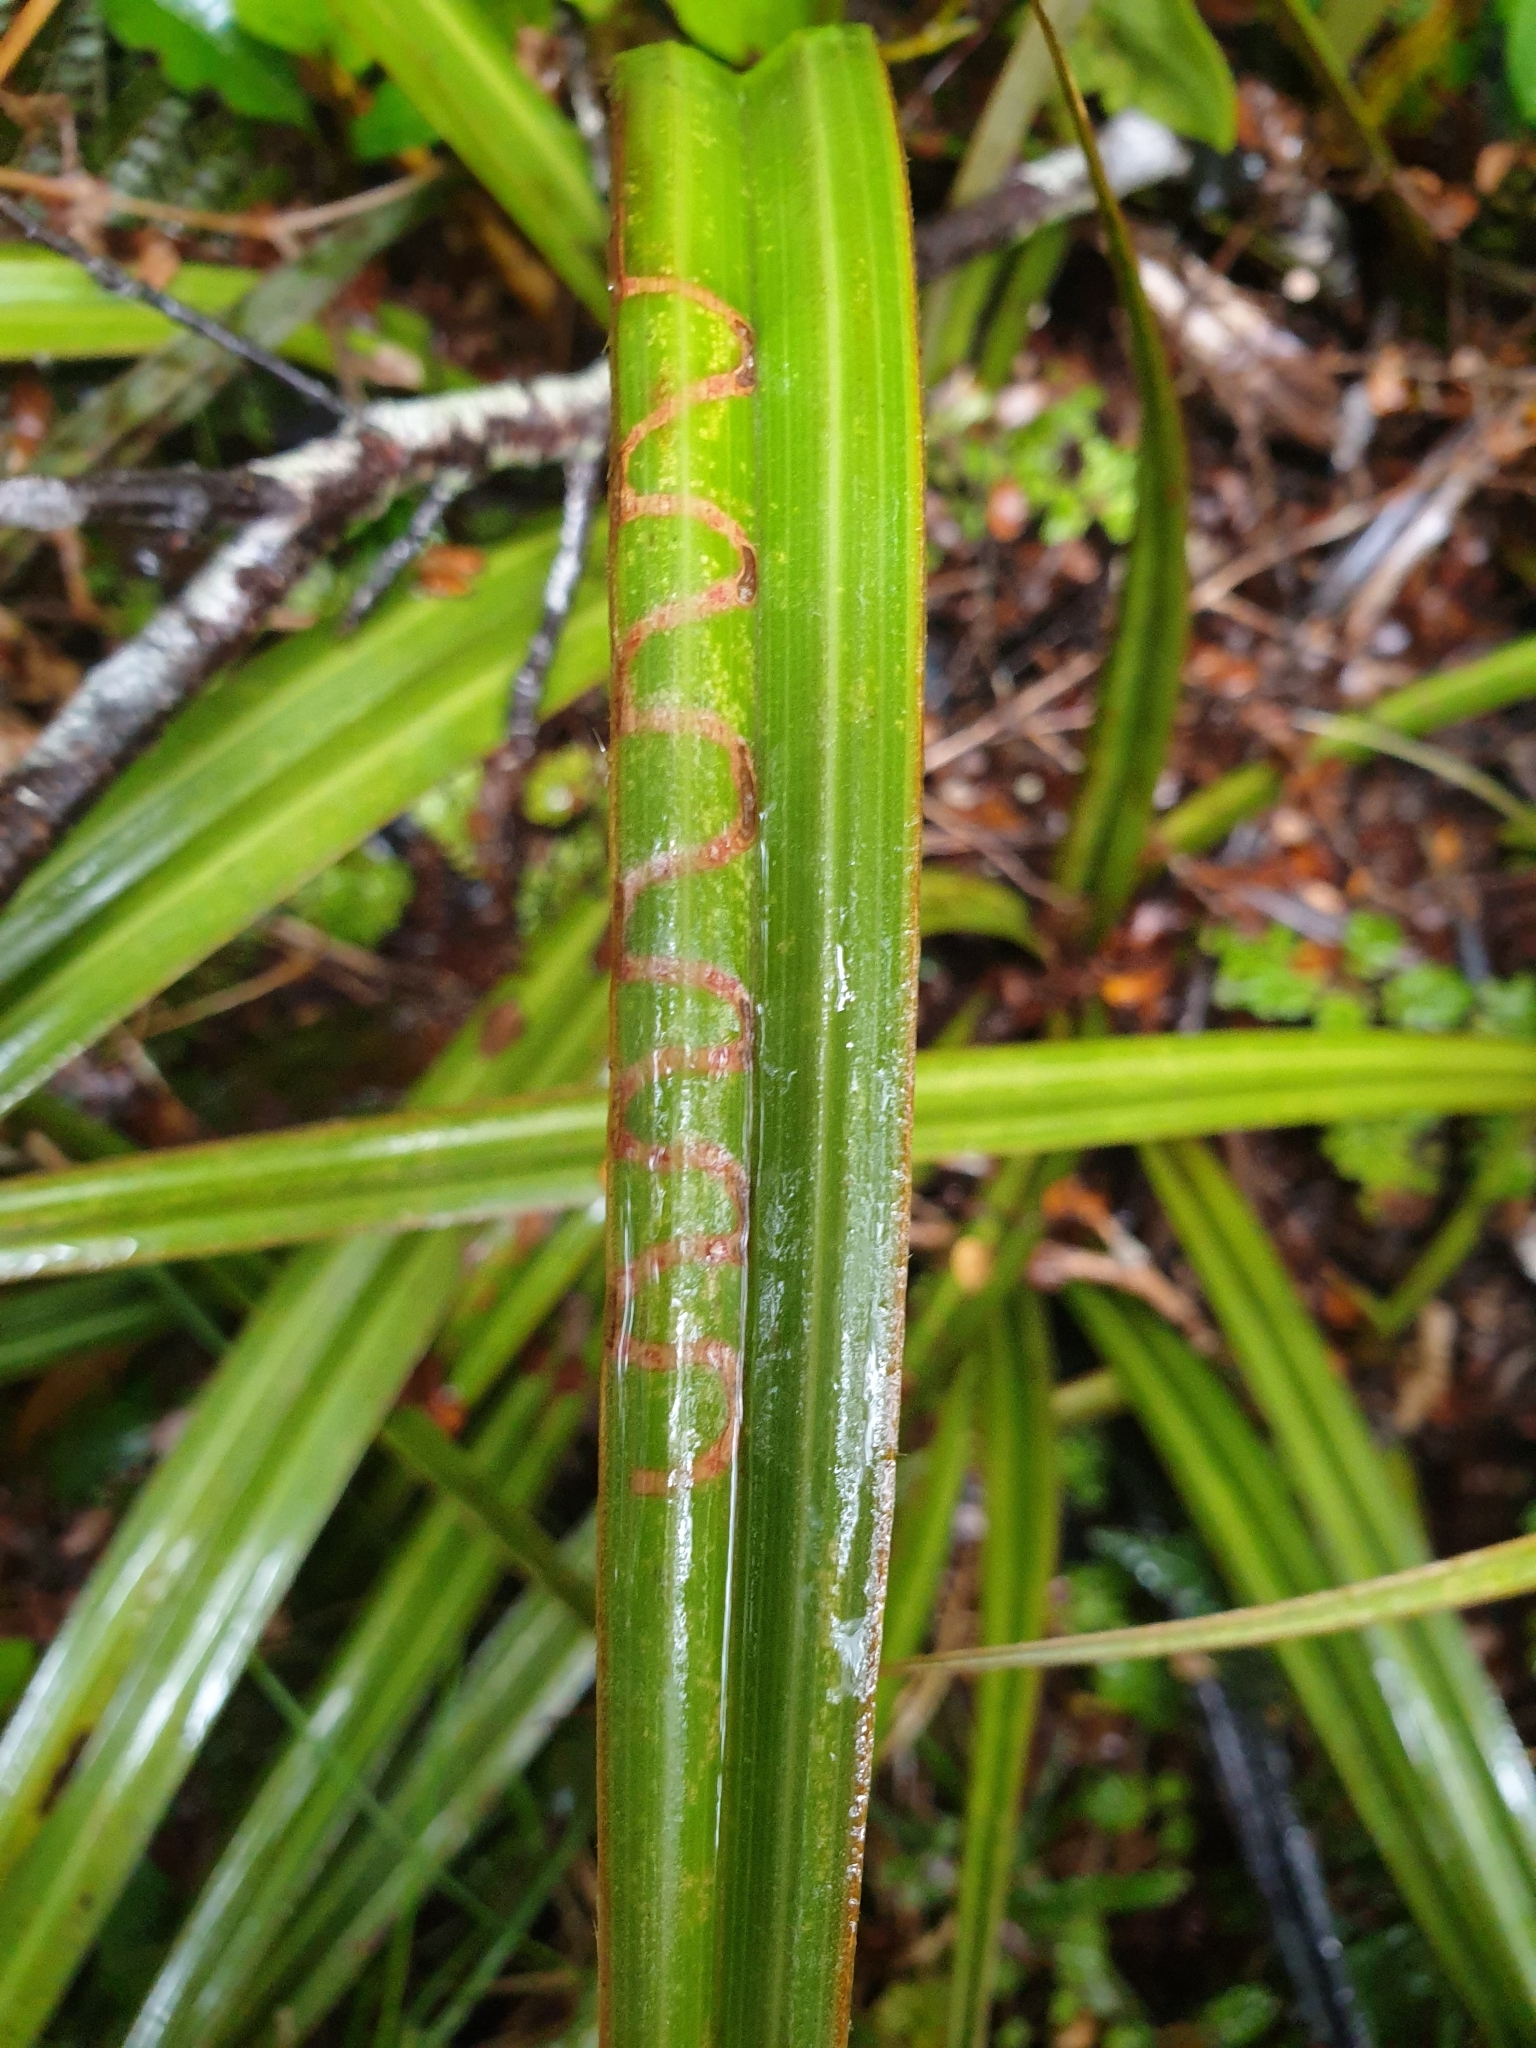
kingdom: Plantae
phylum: Tracheophyta
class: Liliopsida
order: Asparagales
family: Asteliaceae
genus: Astelia
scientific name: Astelia nervosa
